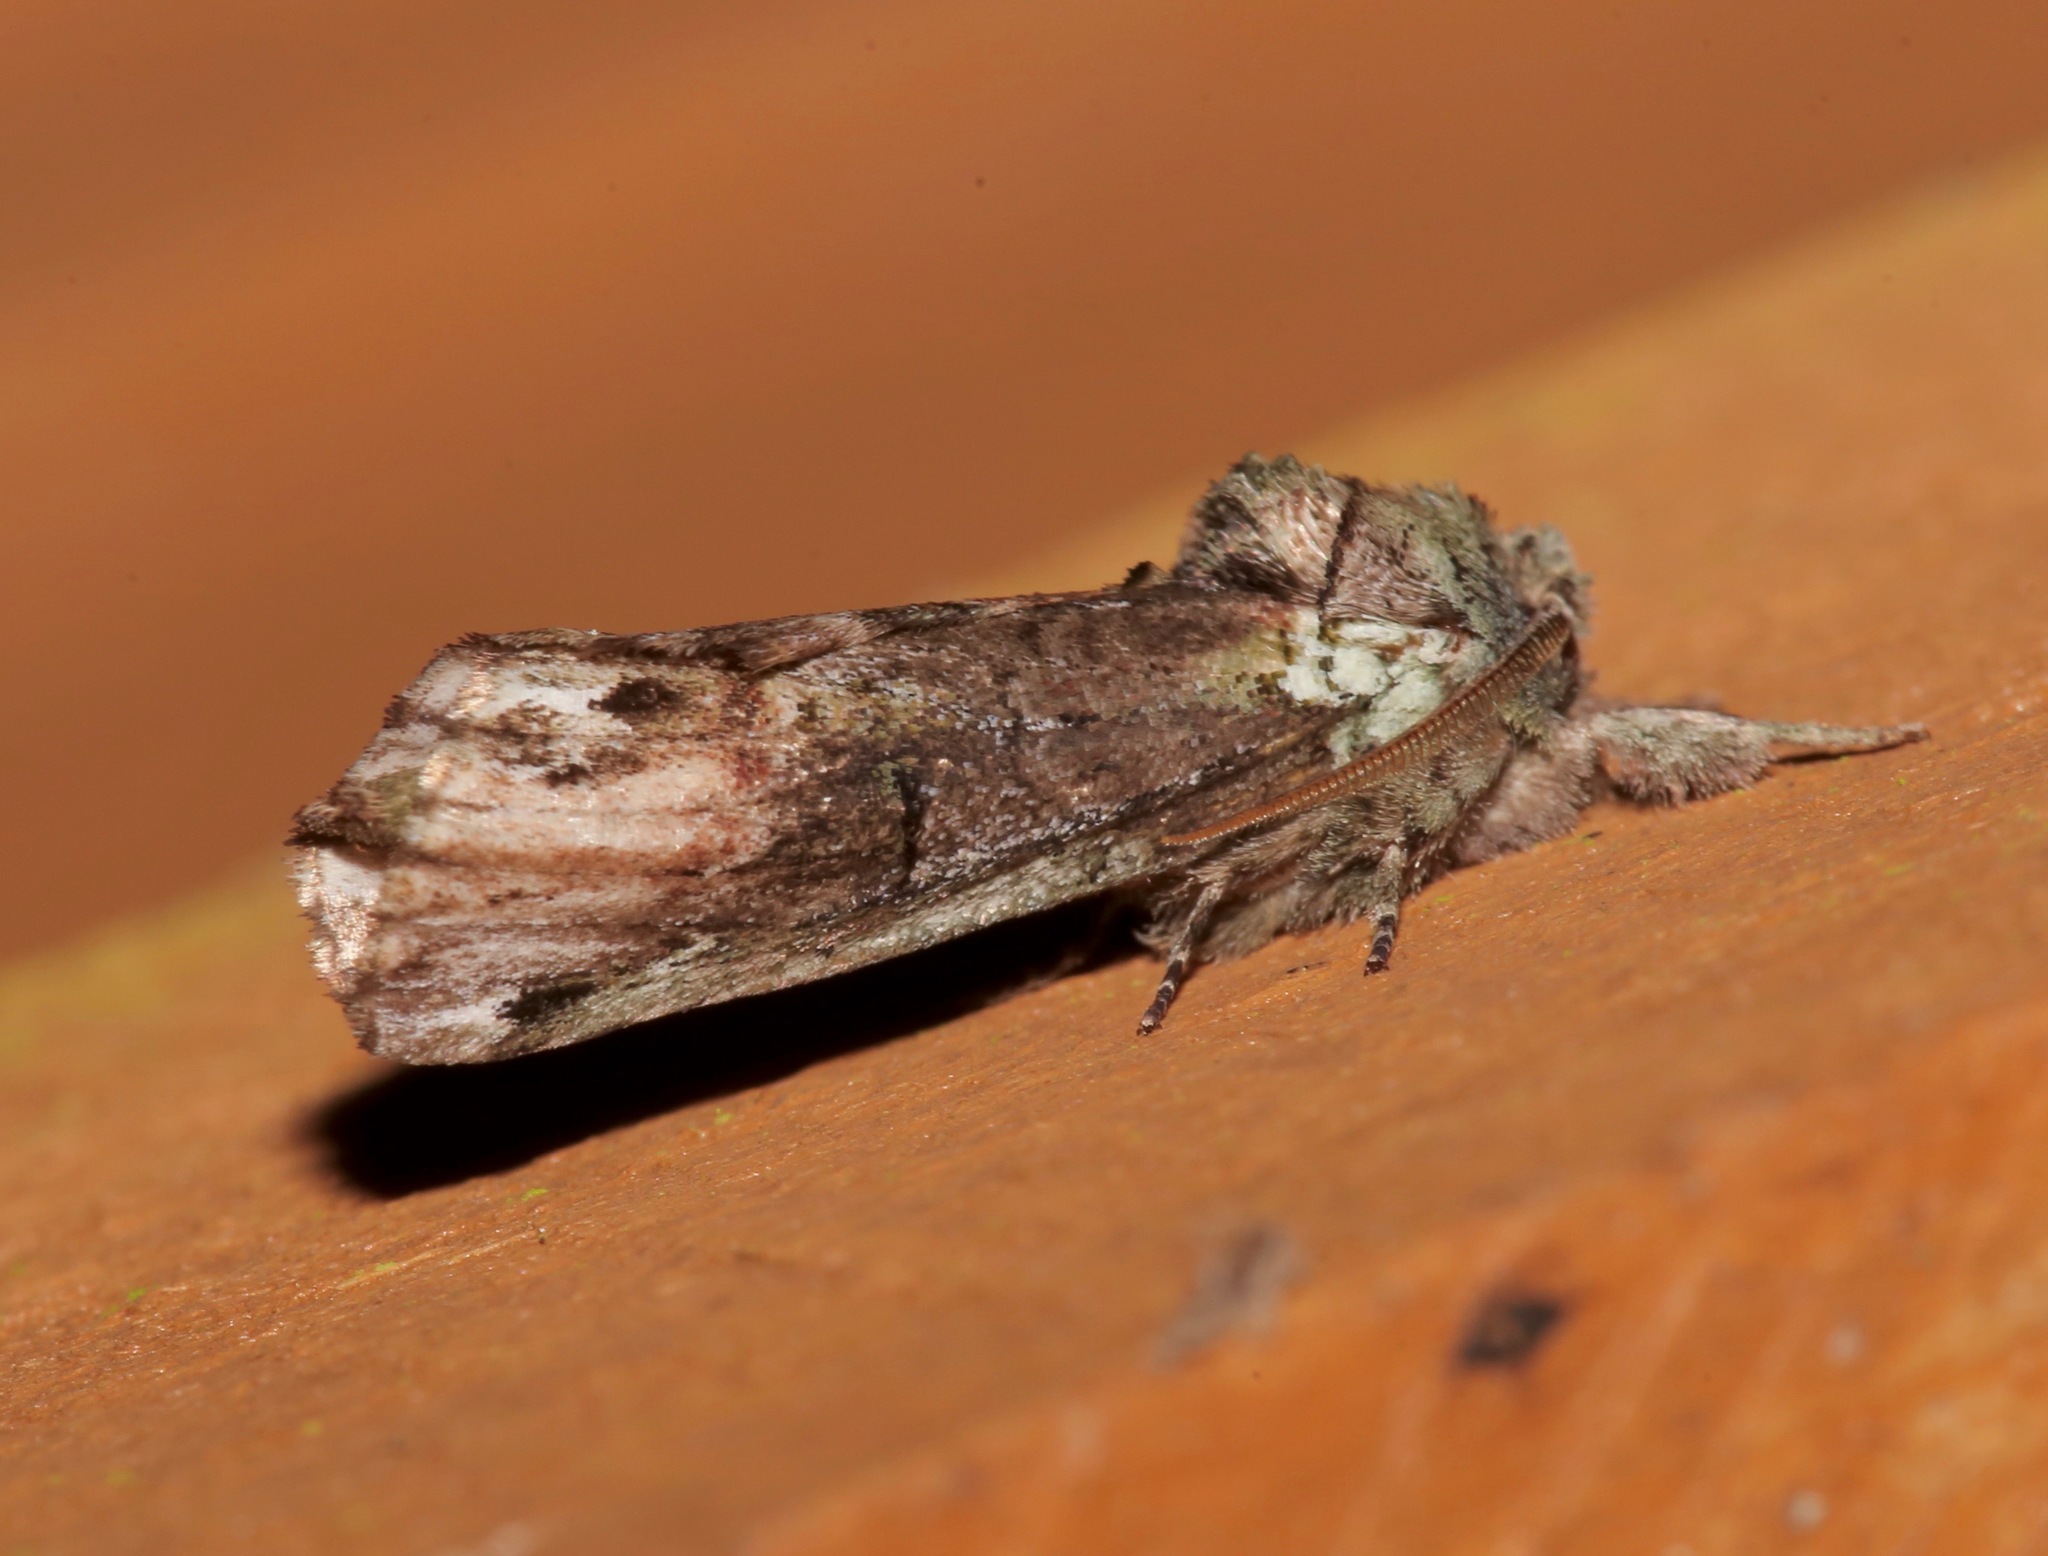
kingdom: Animalia
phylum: Arthropoda
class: Insecta
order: Lepidoptera
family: Notodontidae
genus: Schizura
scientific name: Schizura
